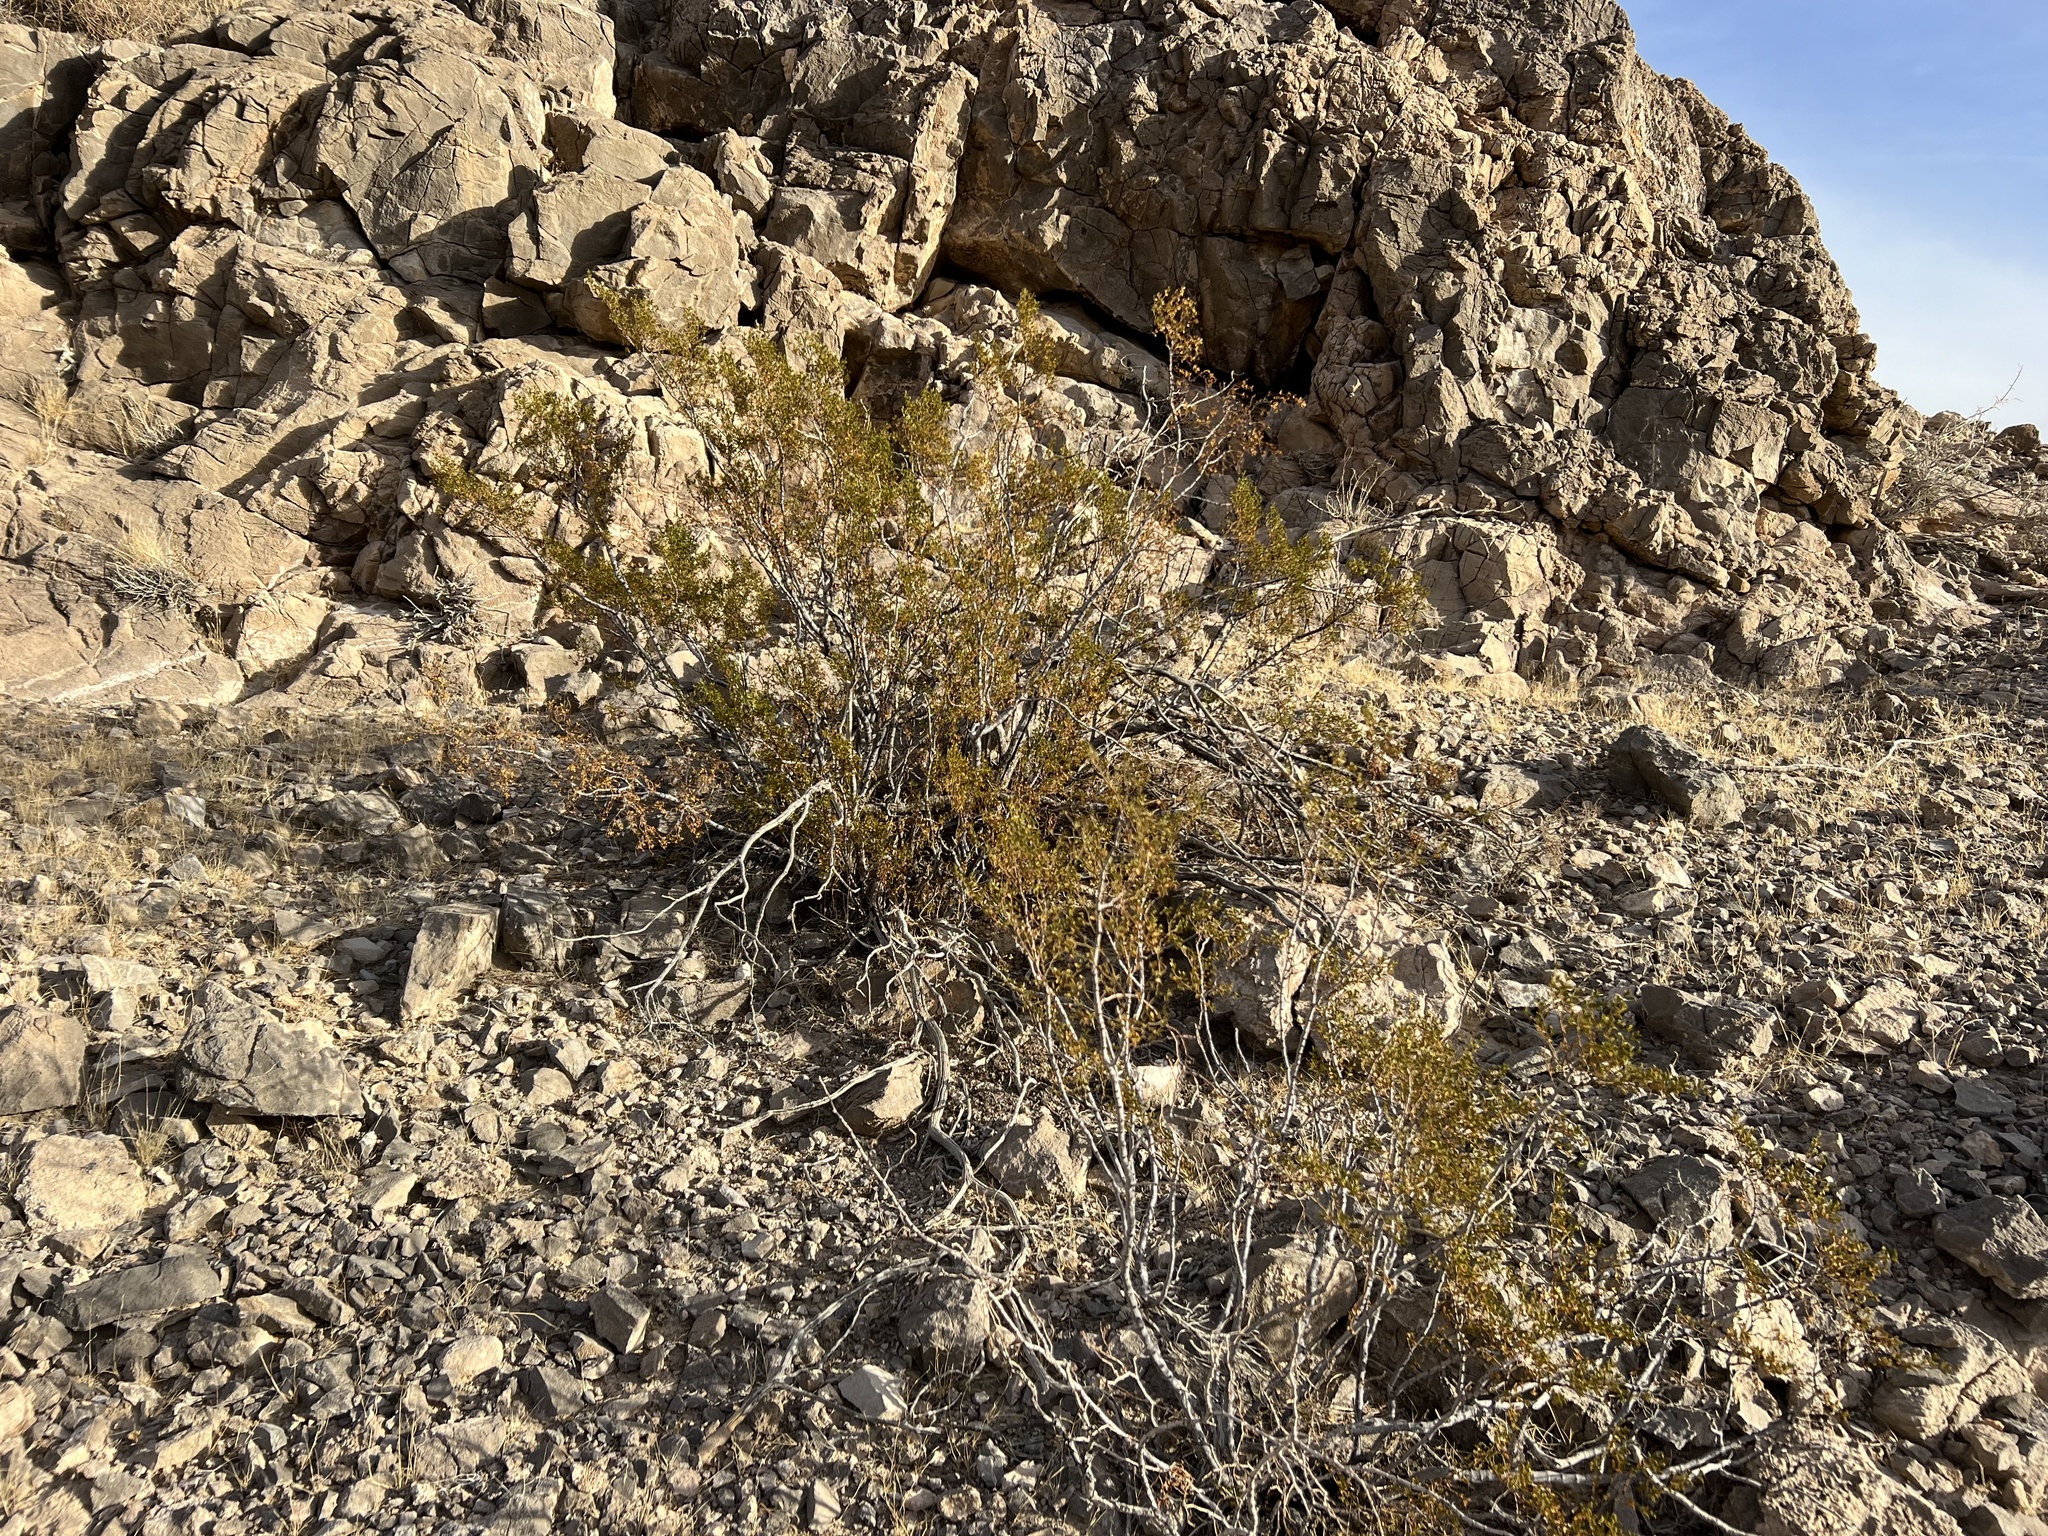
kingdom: Plantae
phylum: Tracheophyta
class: Magnoliopsida
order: Zygophyllales
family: Zygophyllaceae
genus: Larrea
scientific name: Larrea tridentata
